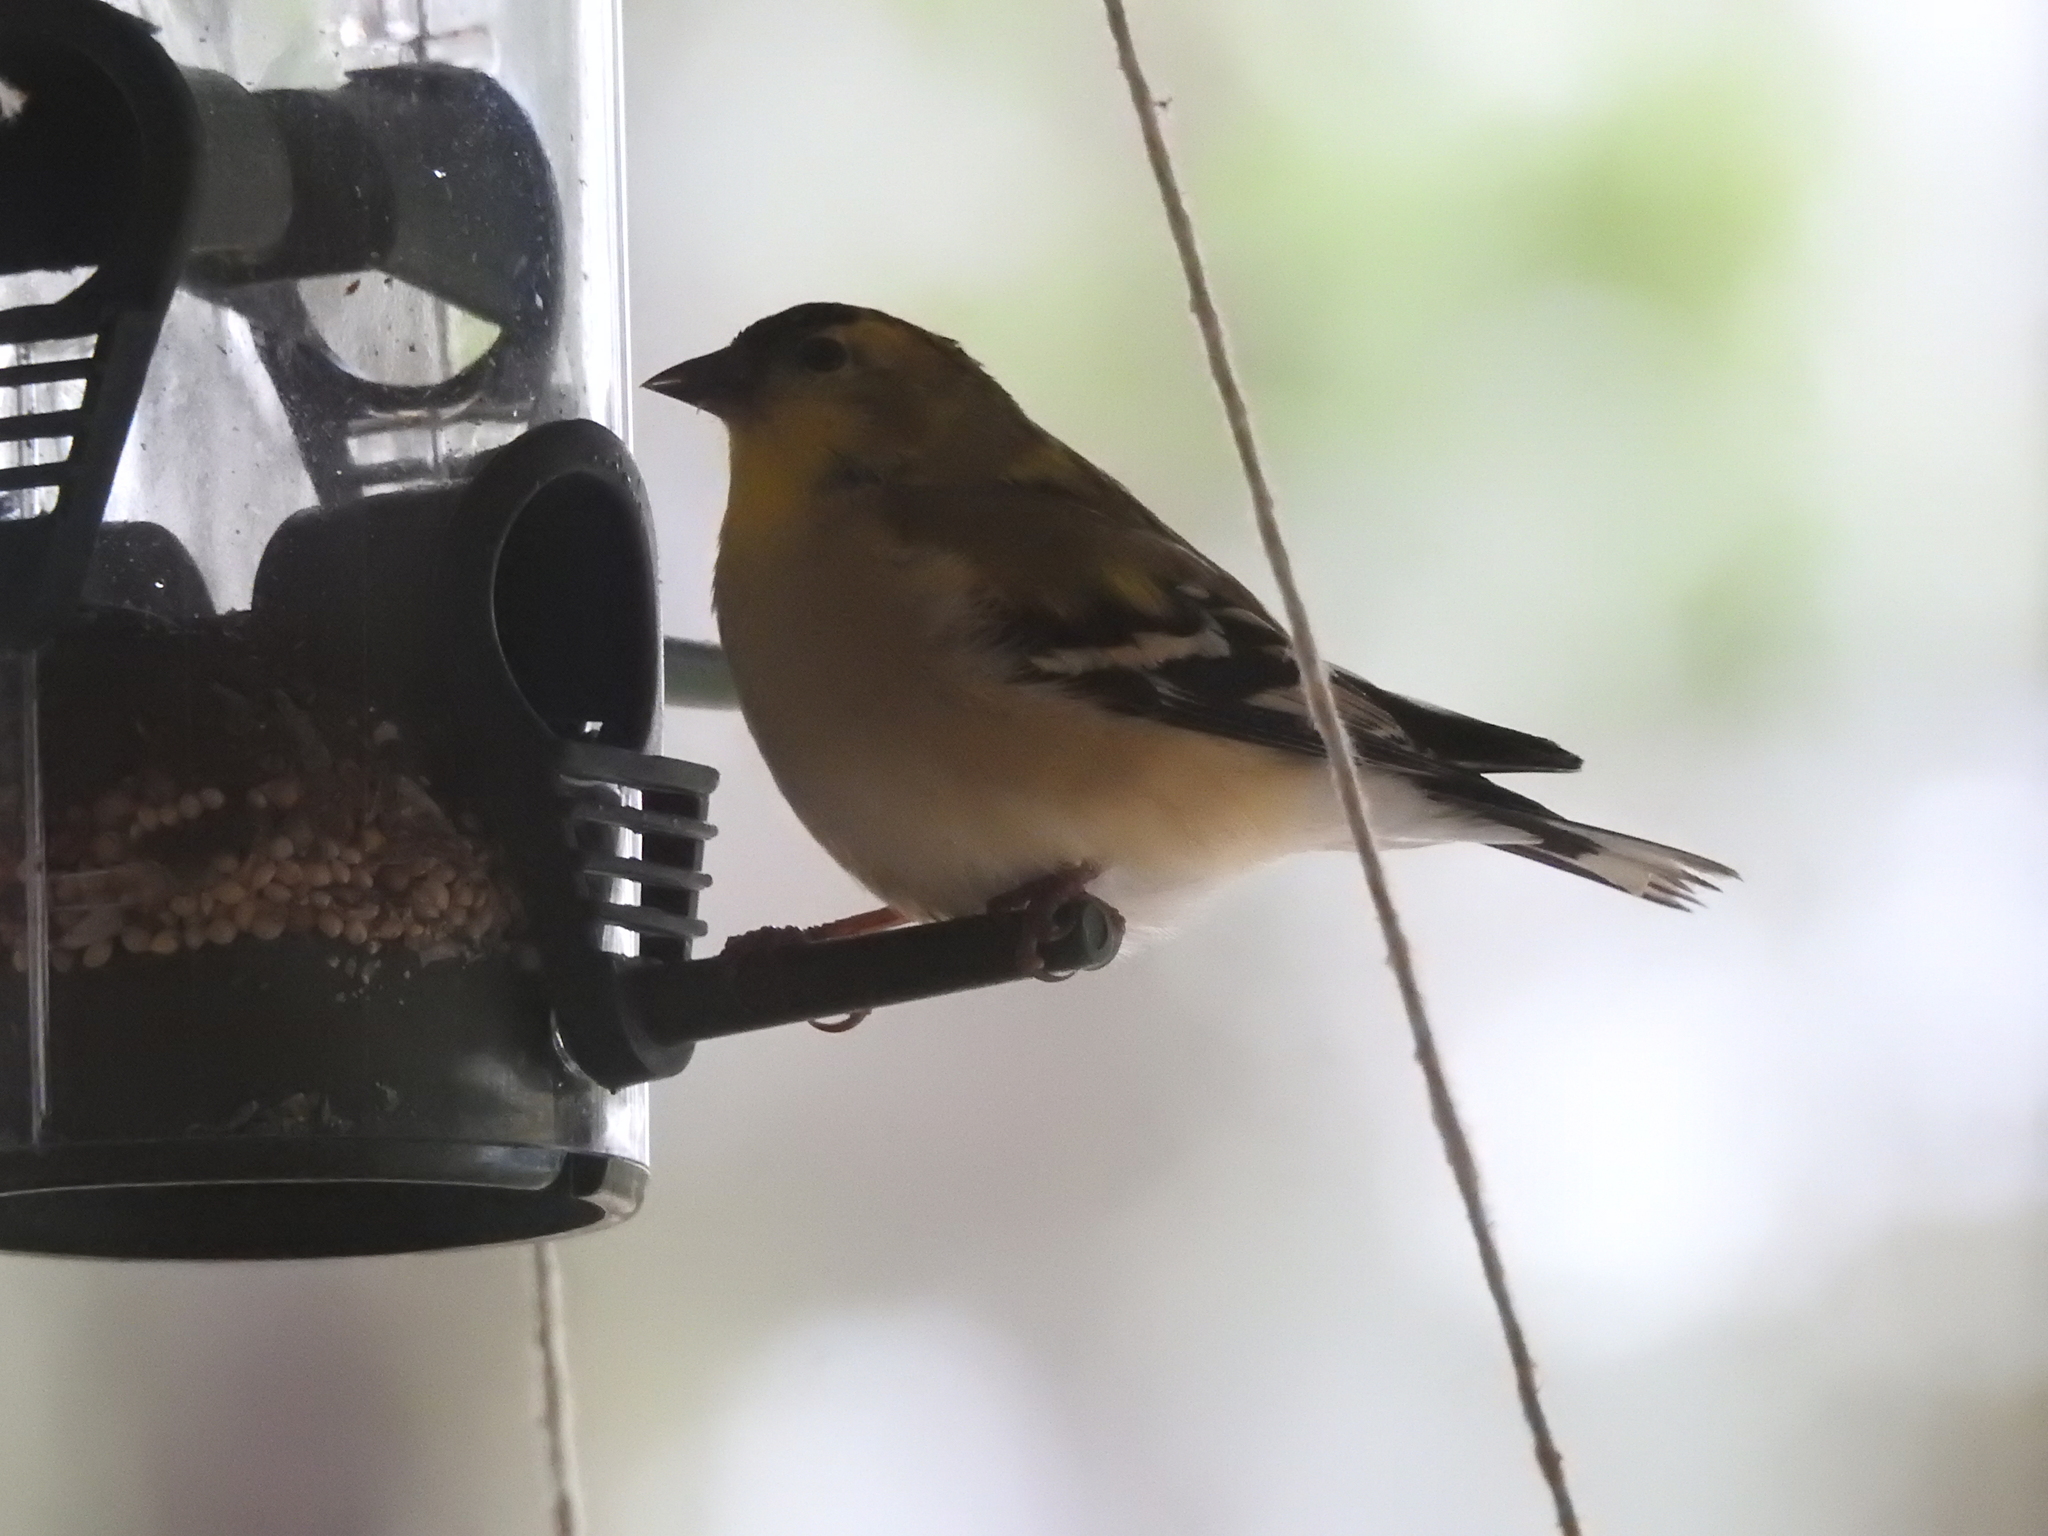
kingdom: Animalia
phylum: Chordata
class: Aves
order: Passeriformes
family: Fringillidae
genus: Spinus
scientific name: Spinus tristis
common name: American goldfinch
